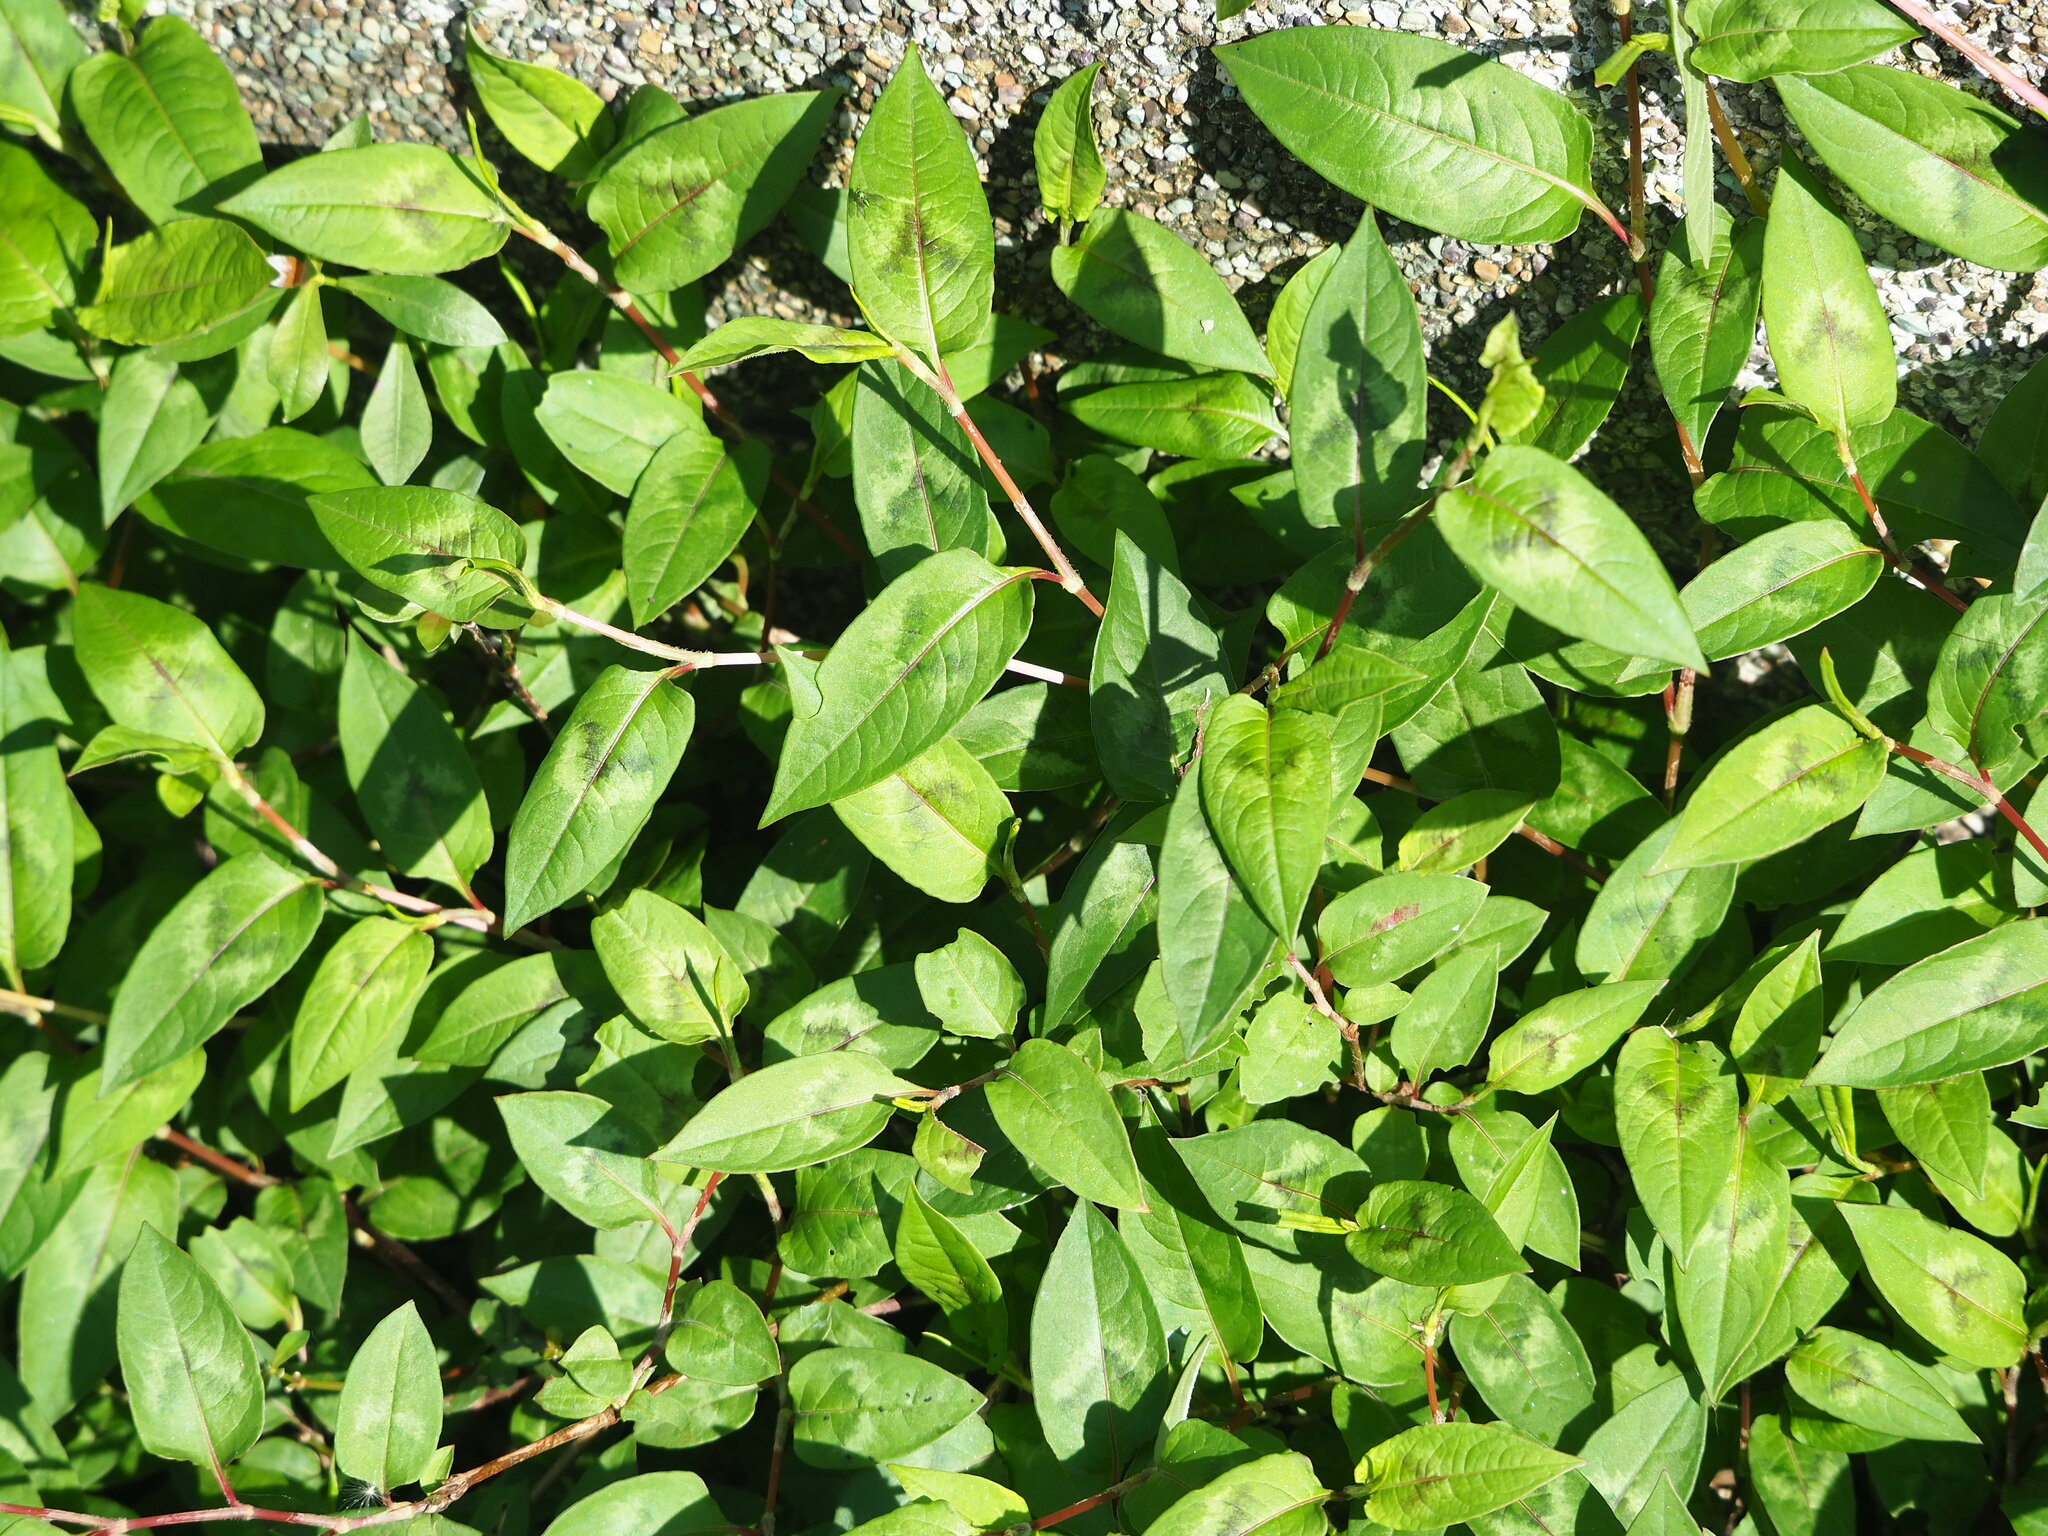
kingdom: Plantae
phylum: Tracheophyta
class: Magnoliopsida
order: Caryophyllales
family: Polygonaceae
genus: Persicaria
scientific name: Persicaria chinensis
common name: Chinese knotweed
